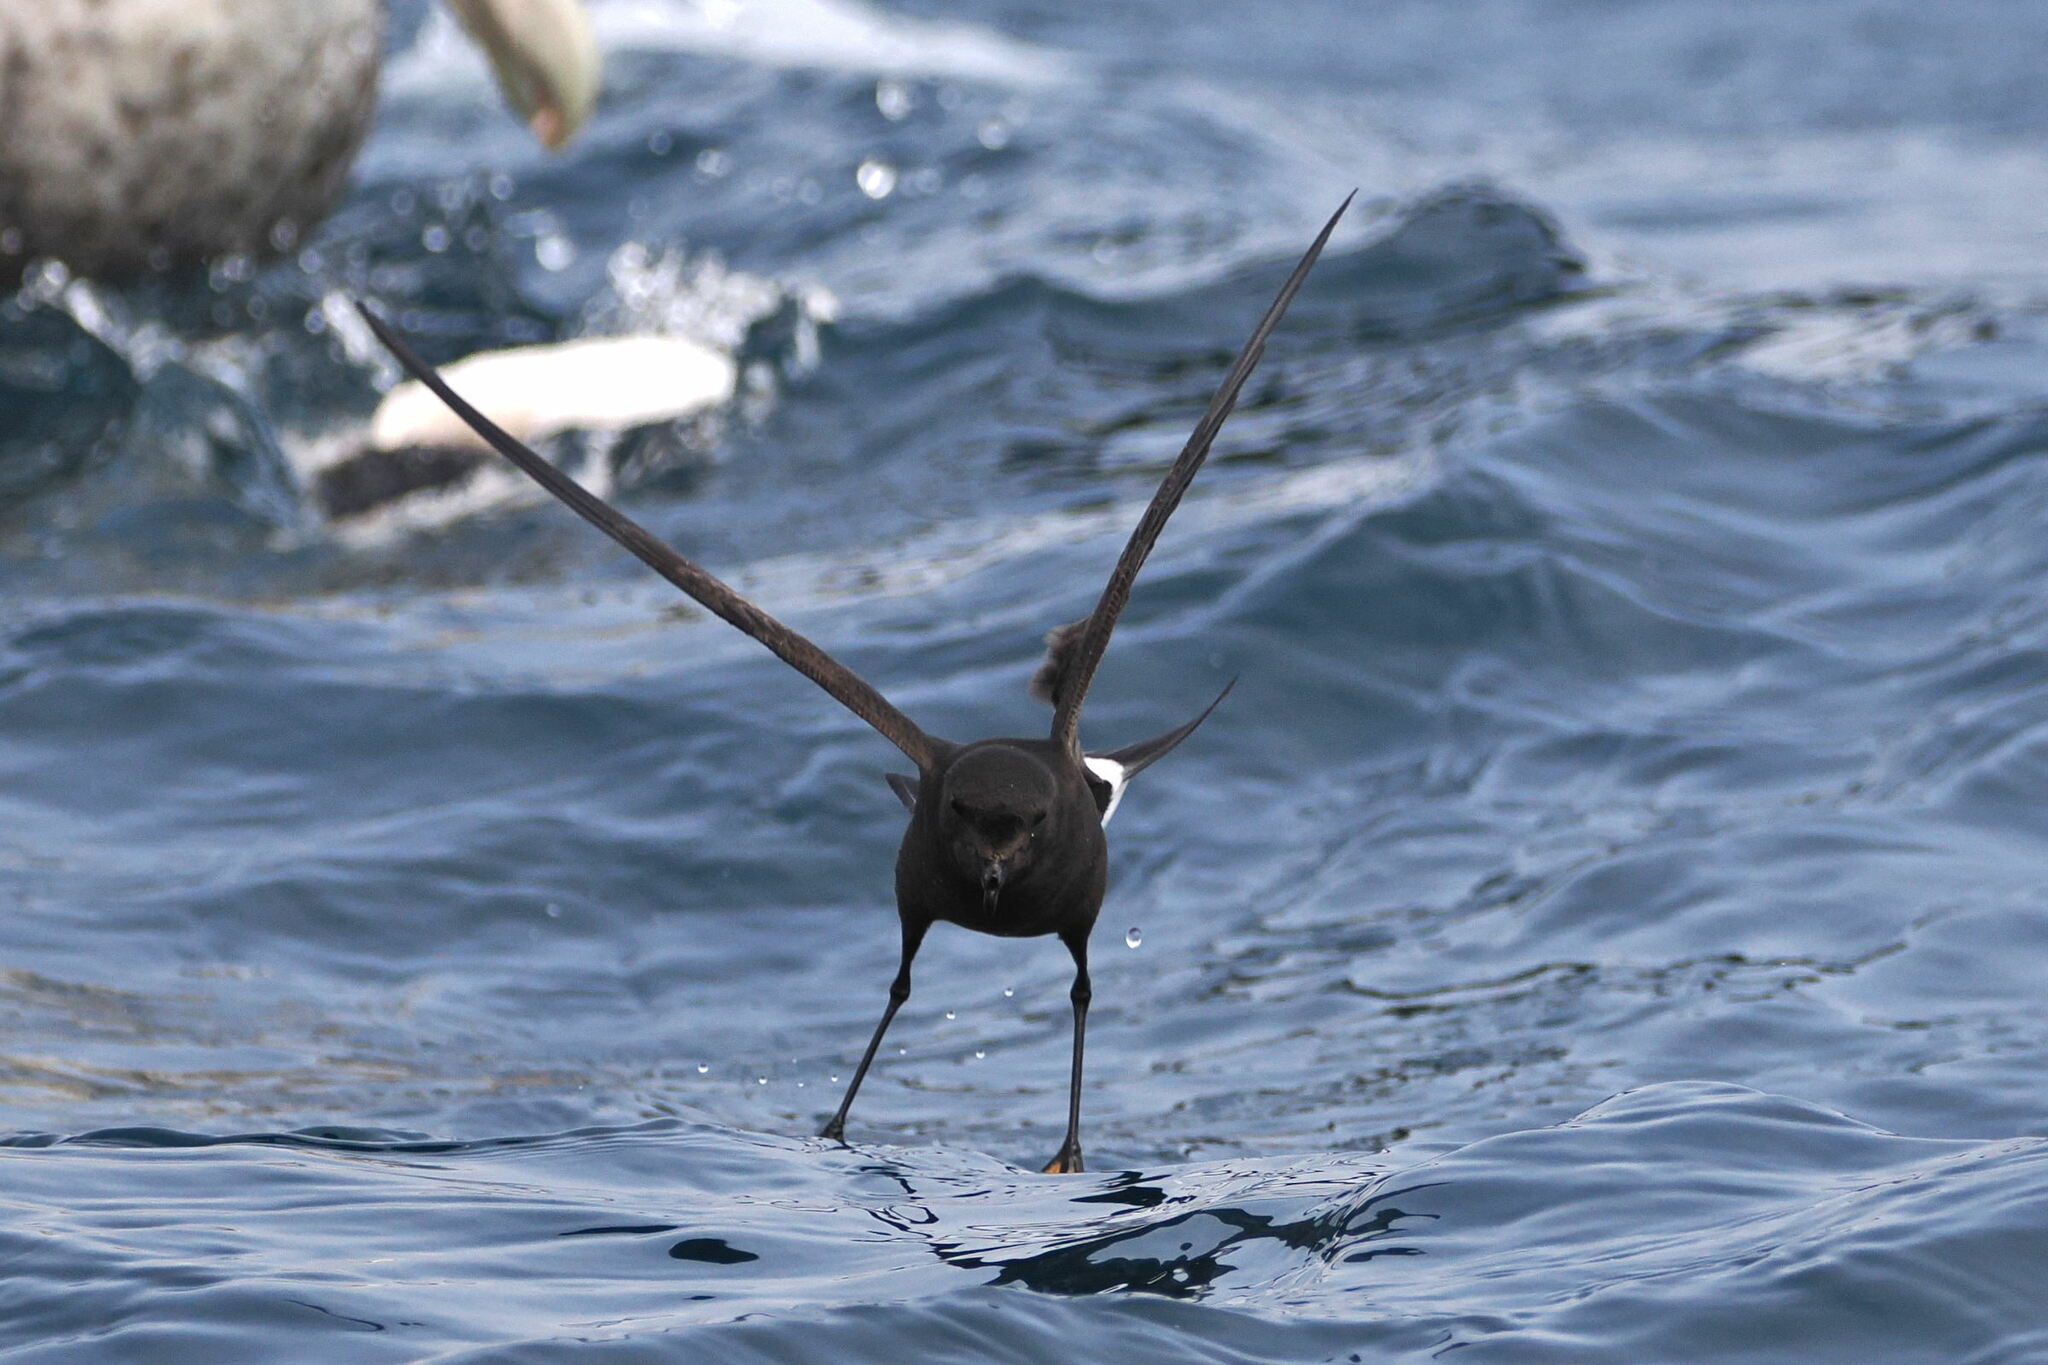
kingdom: Animalia
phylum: Chordata
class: Aves
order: Procellariiformes
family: Hydrobatidae
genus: Oceanites
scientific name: Oceanites oceanicus
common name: Wilson's storm petrel
